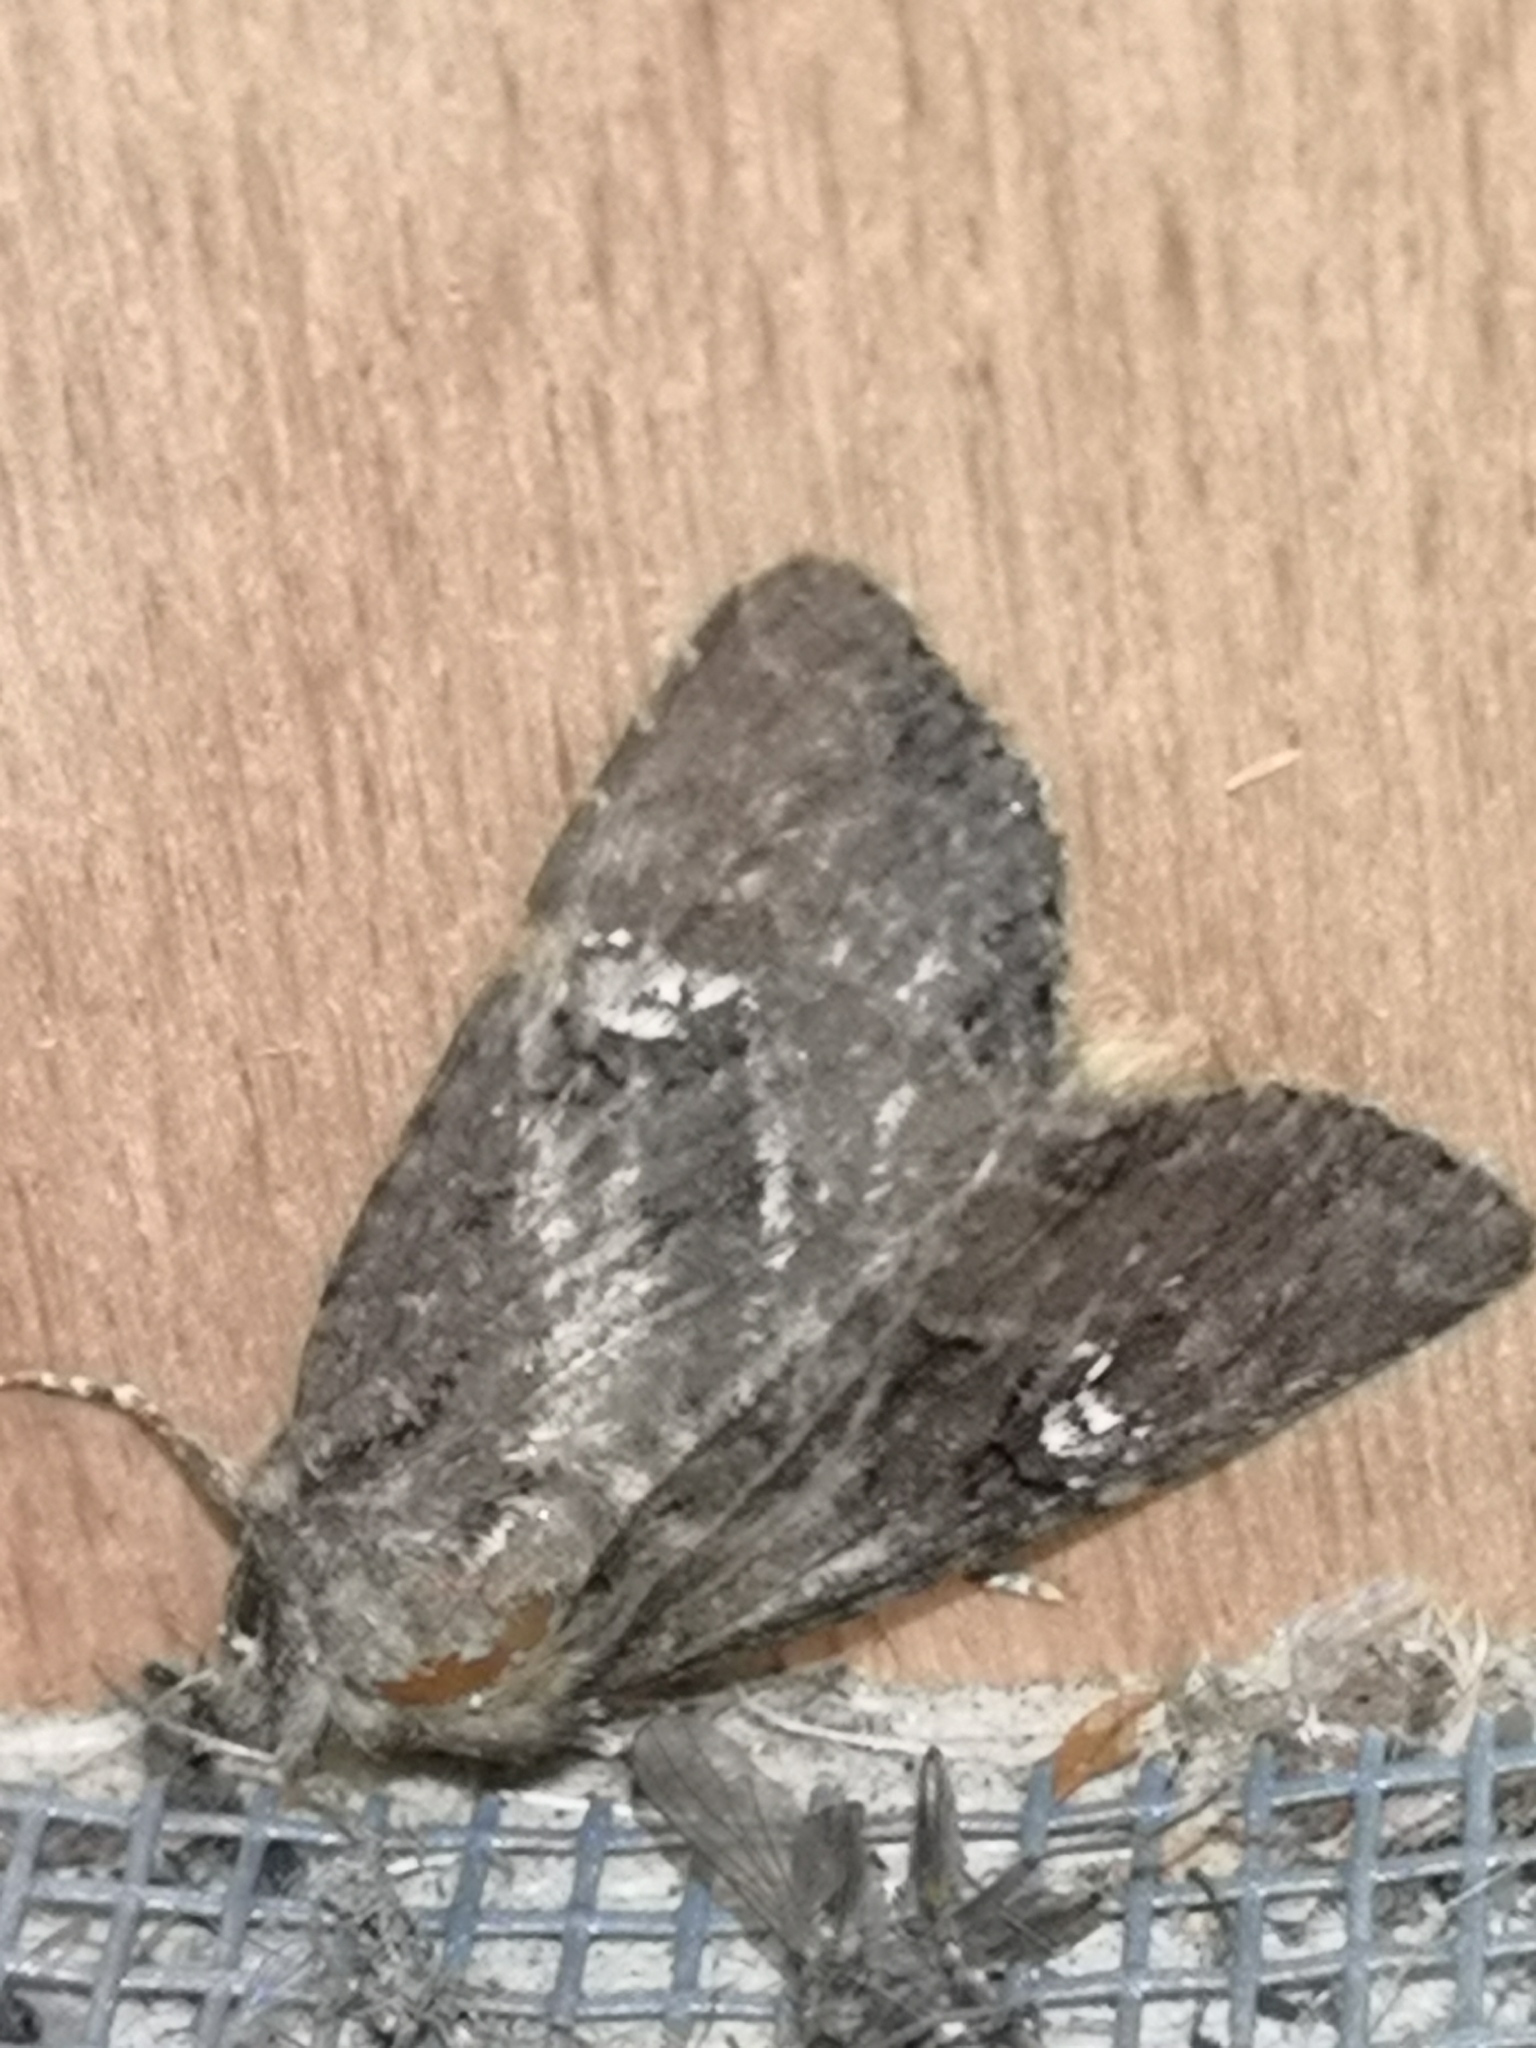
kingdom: Animalia
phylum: Arthropoda
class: Insecta
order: Lepidoptera
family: Noctuidae
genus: Mesapamea
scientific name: Mesapamea
